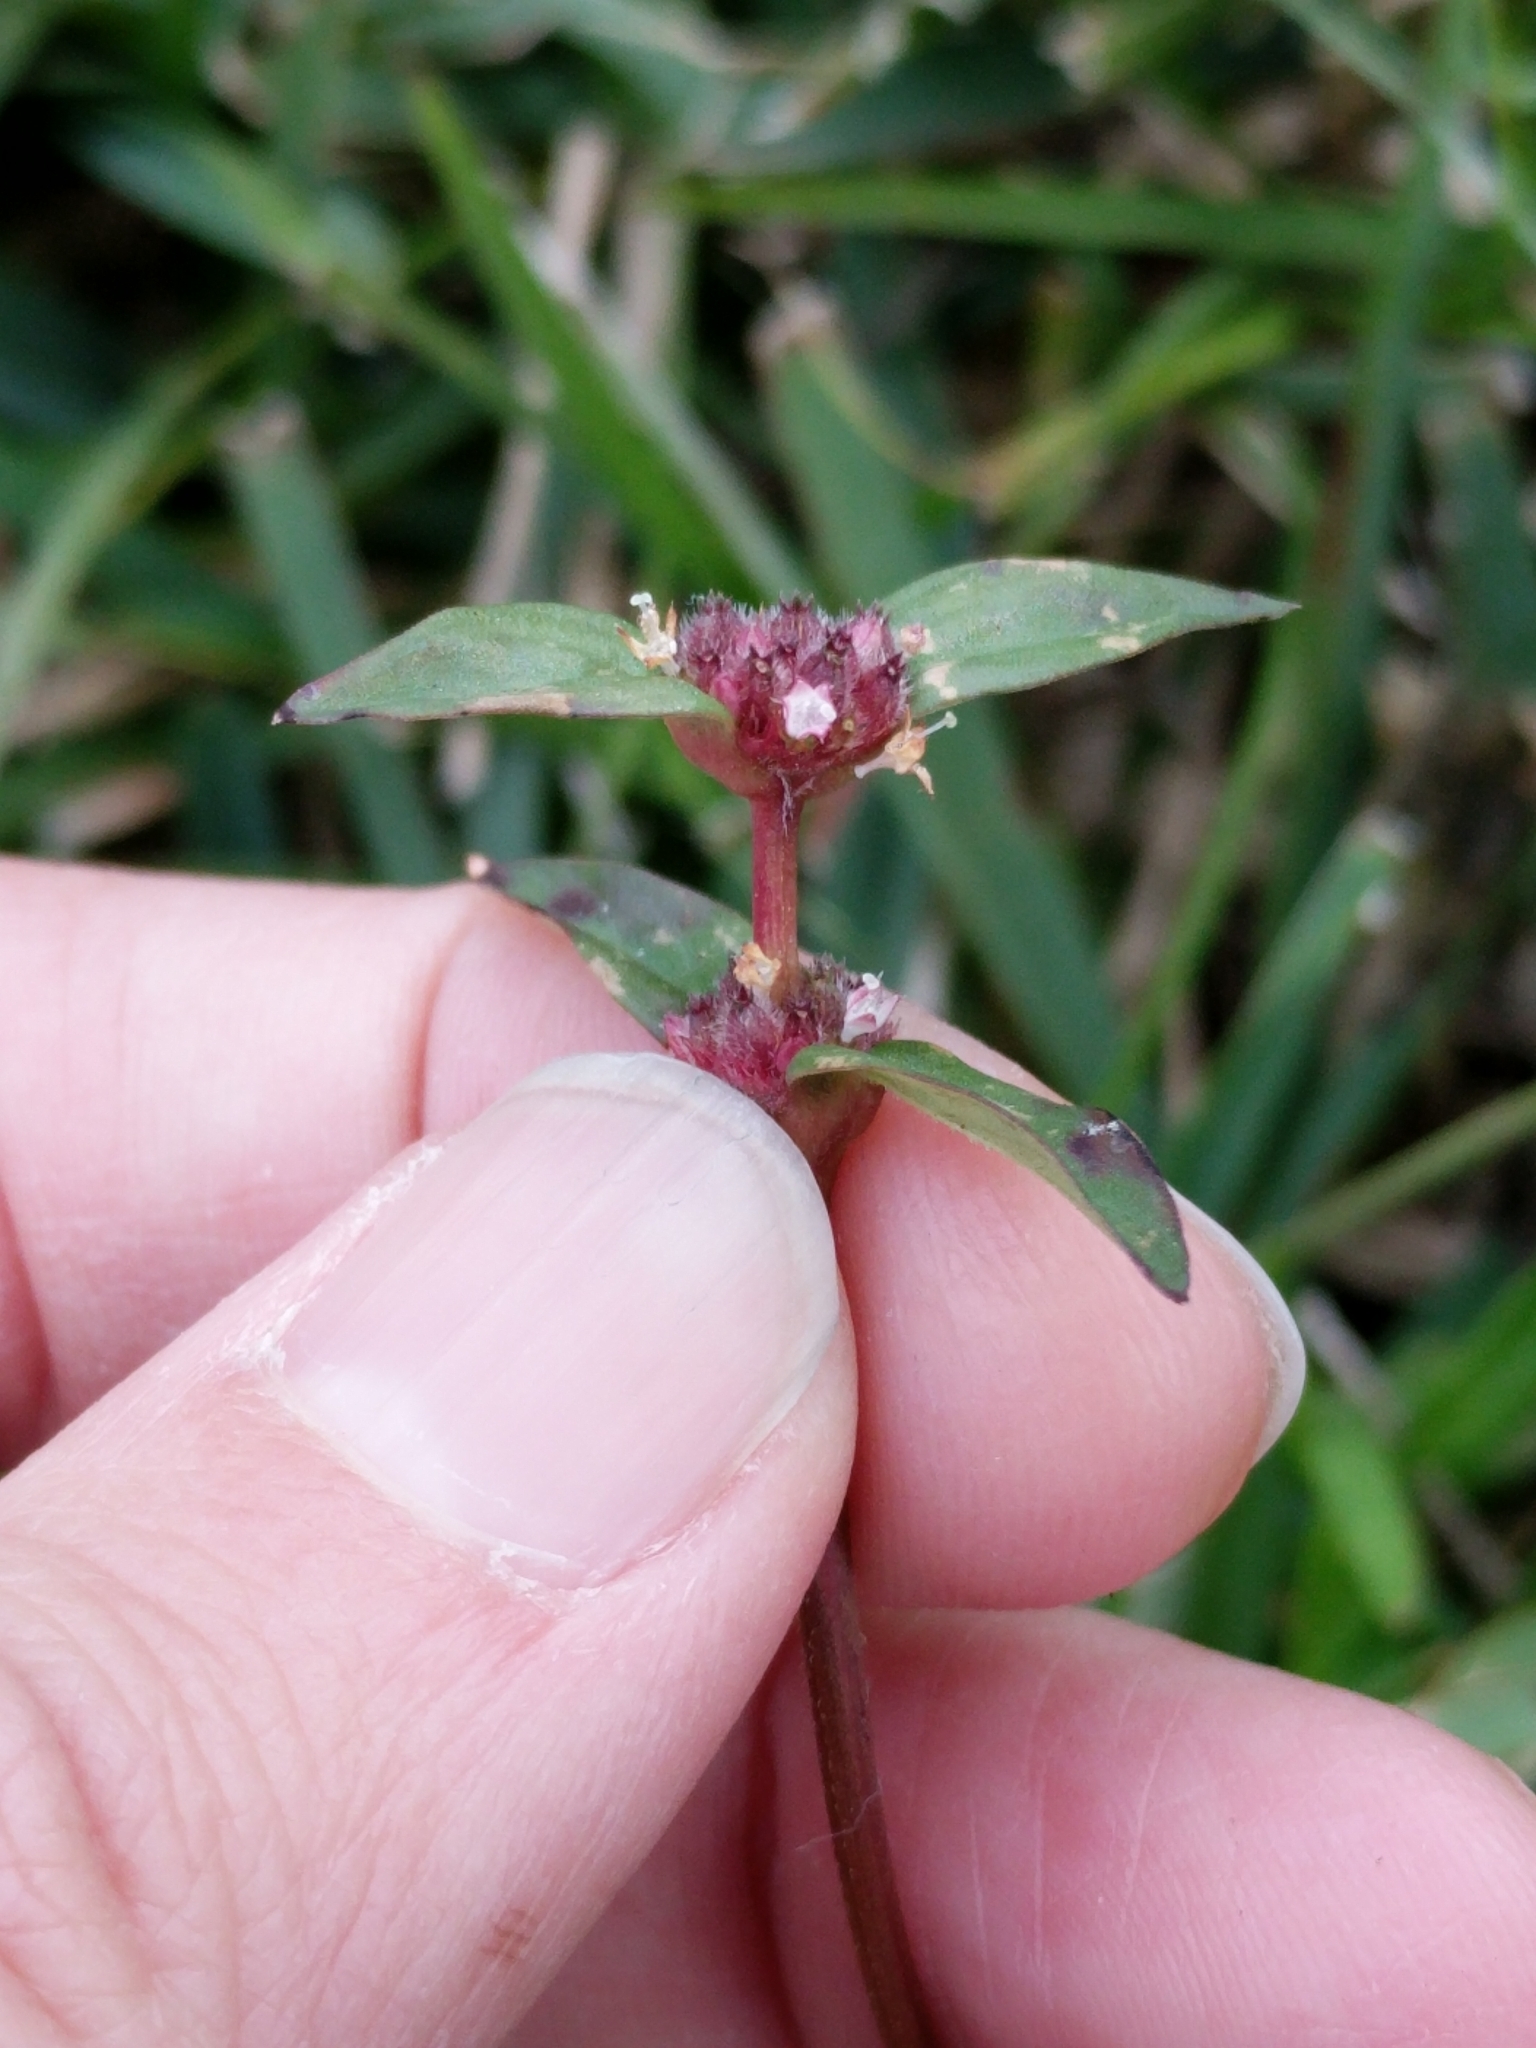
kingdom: Plantae
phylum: Tracheophyta
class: Magnoliopsida
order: Gentianales
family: Rubiaceae
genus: Spermacoce
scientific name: Spermacoce remota
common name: Woodland false buttonweed
